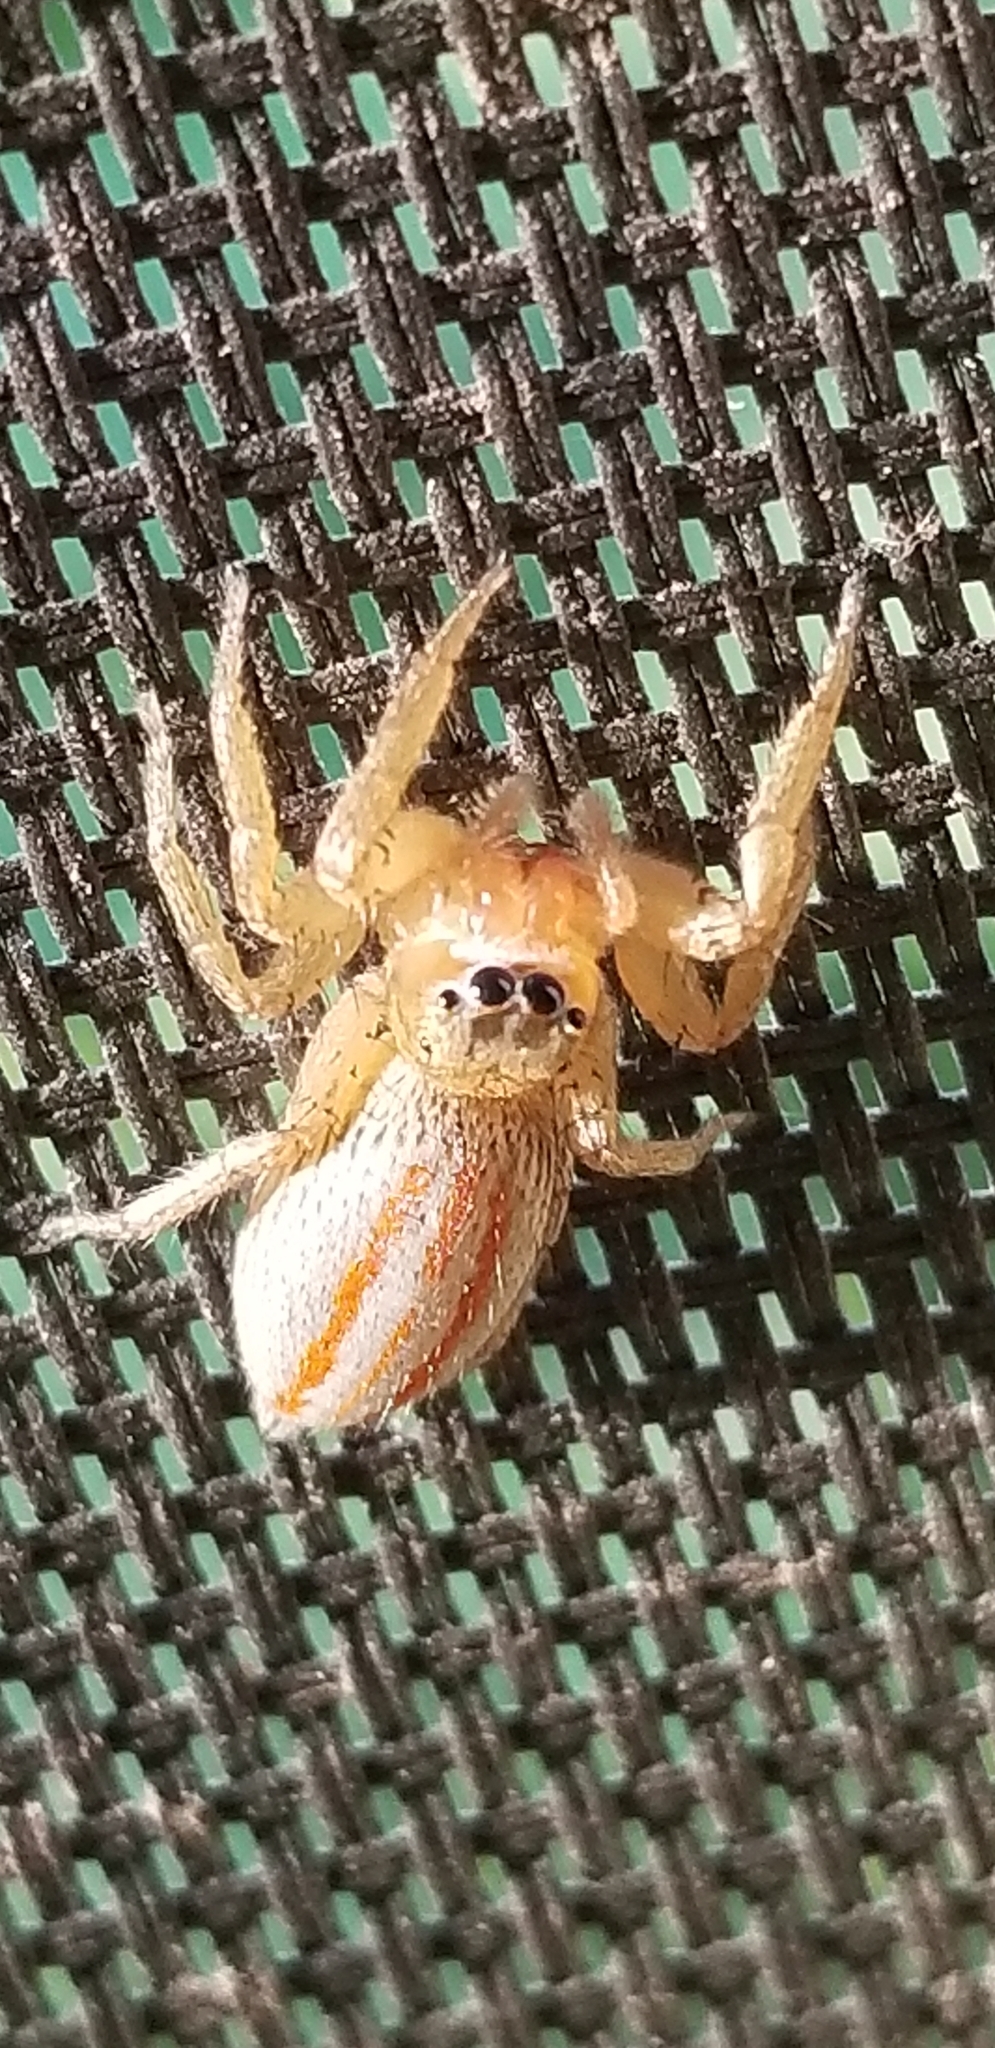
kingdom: Animalia
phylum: Arthropoda
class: Arachnida
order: Araneae
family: Salticidae
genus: Paramaevia
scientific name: Paramaevia poultoni
